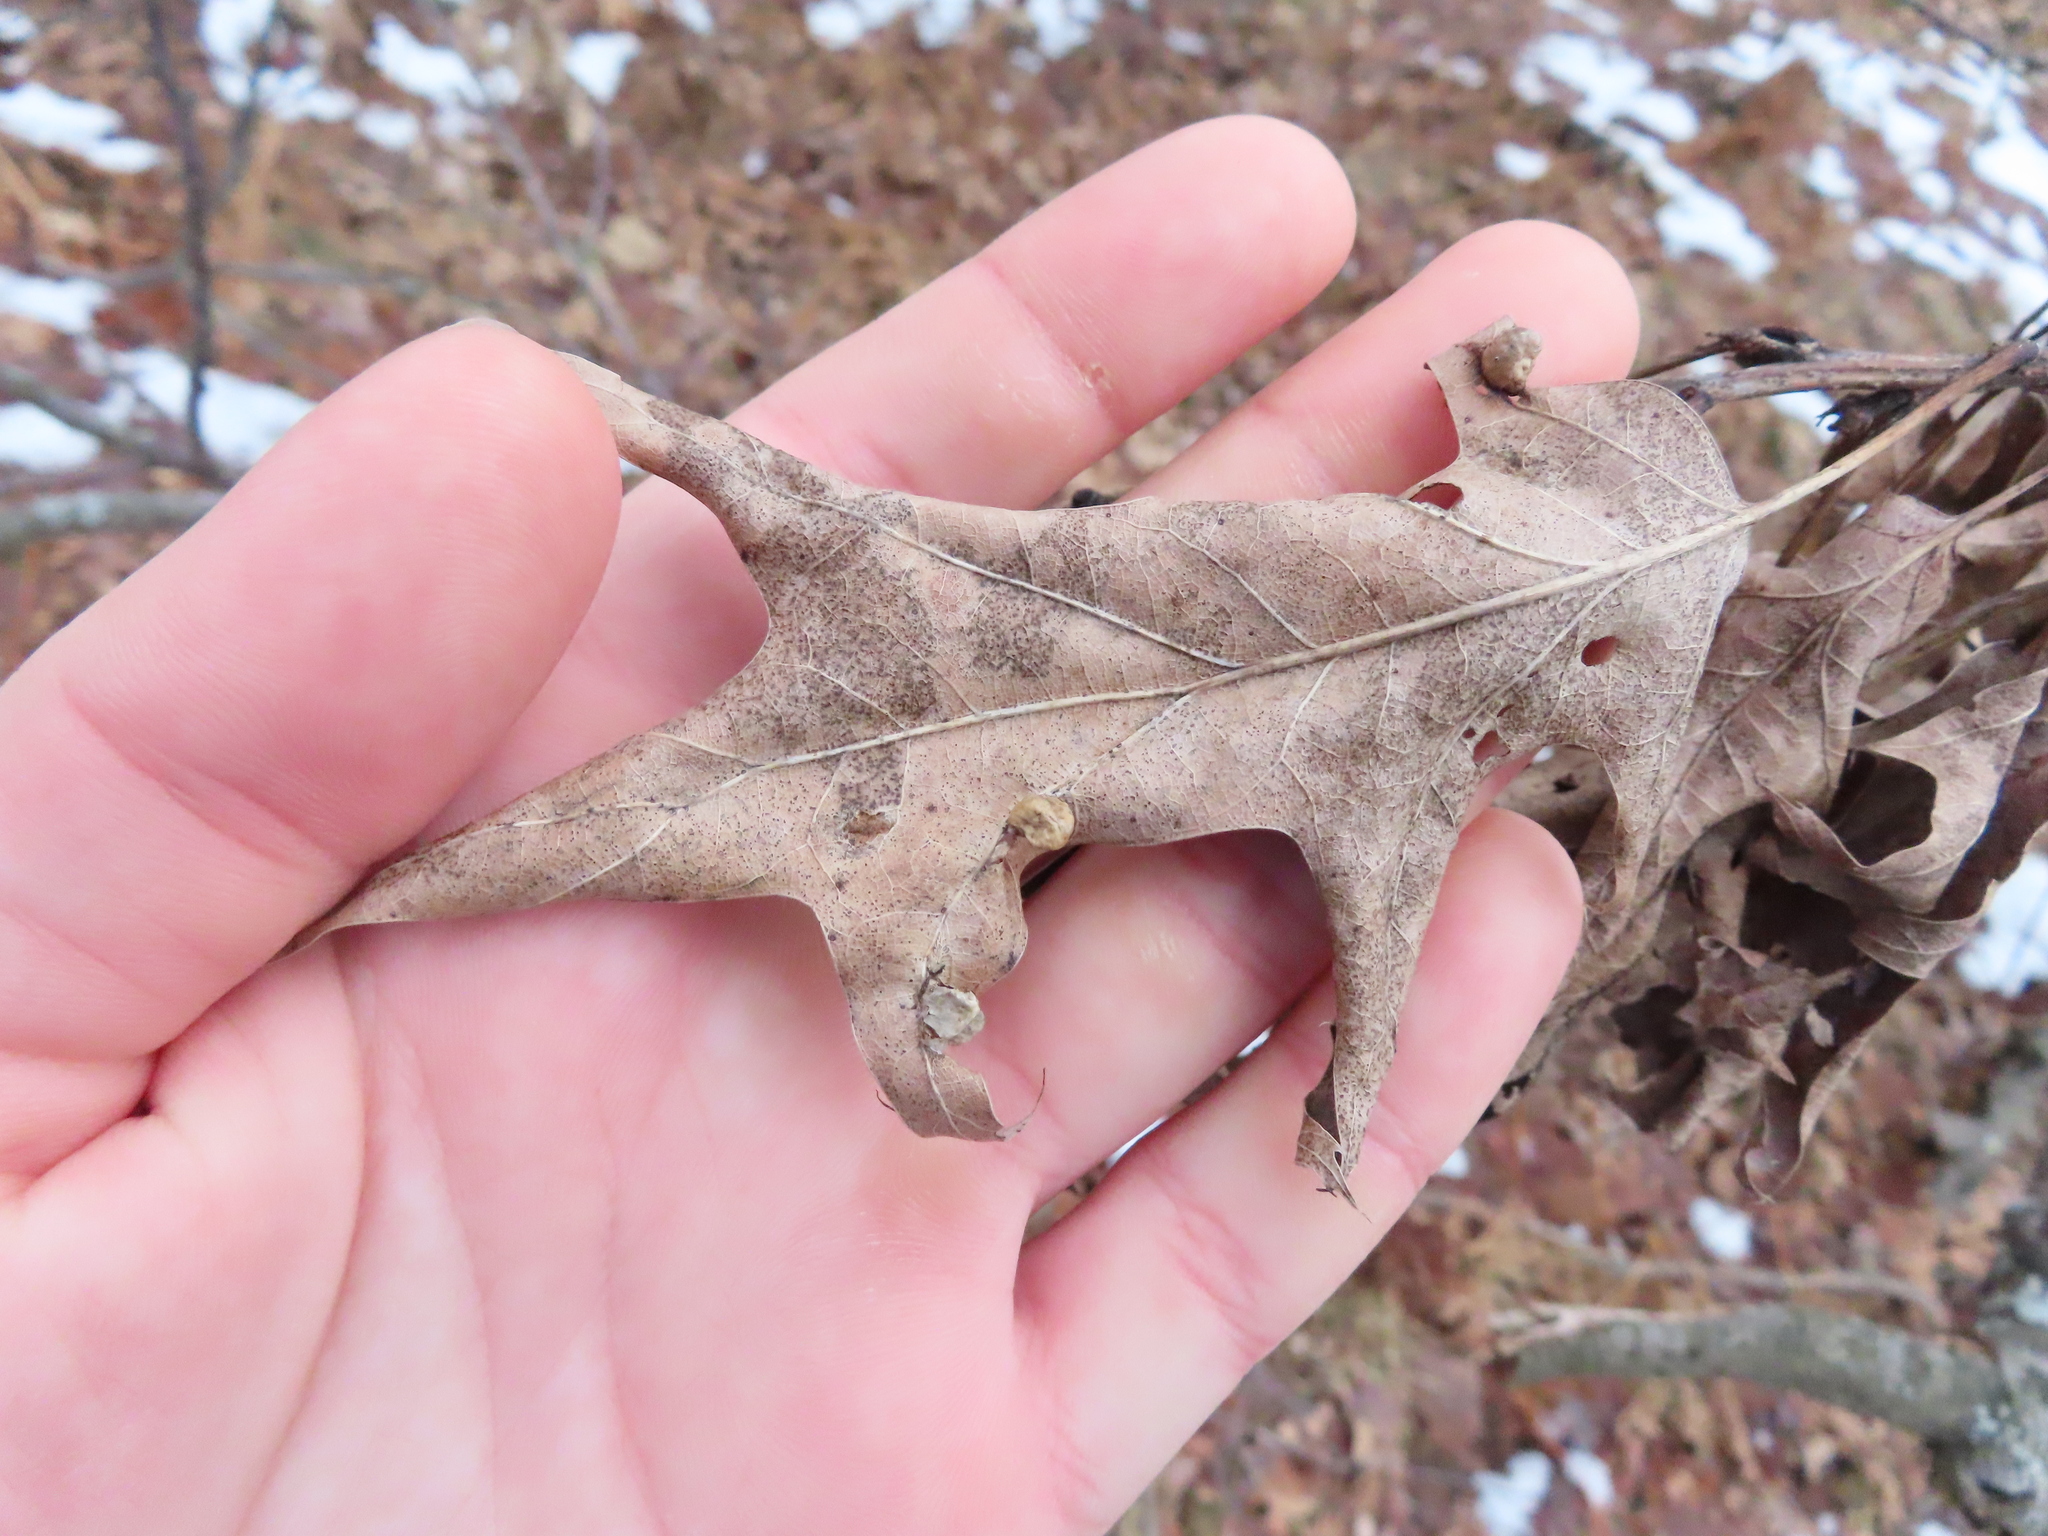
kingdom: Animalia
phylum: Arthropoda
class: Insecta
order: Diptera
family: Cecidomyiidae
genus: Macrodiplosis
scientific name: Macrodiplosis majalis
